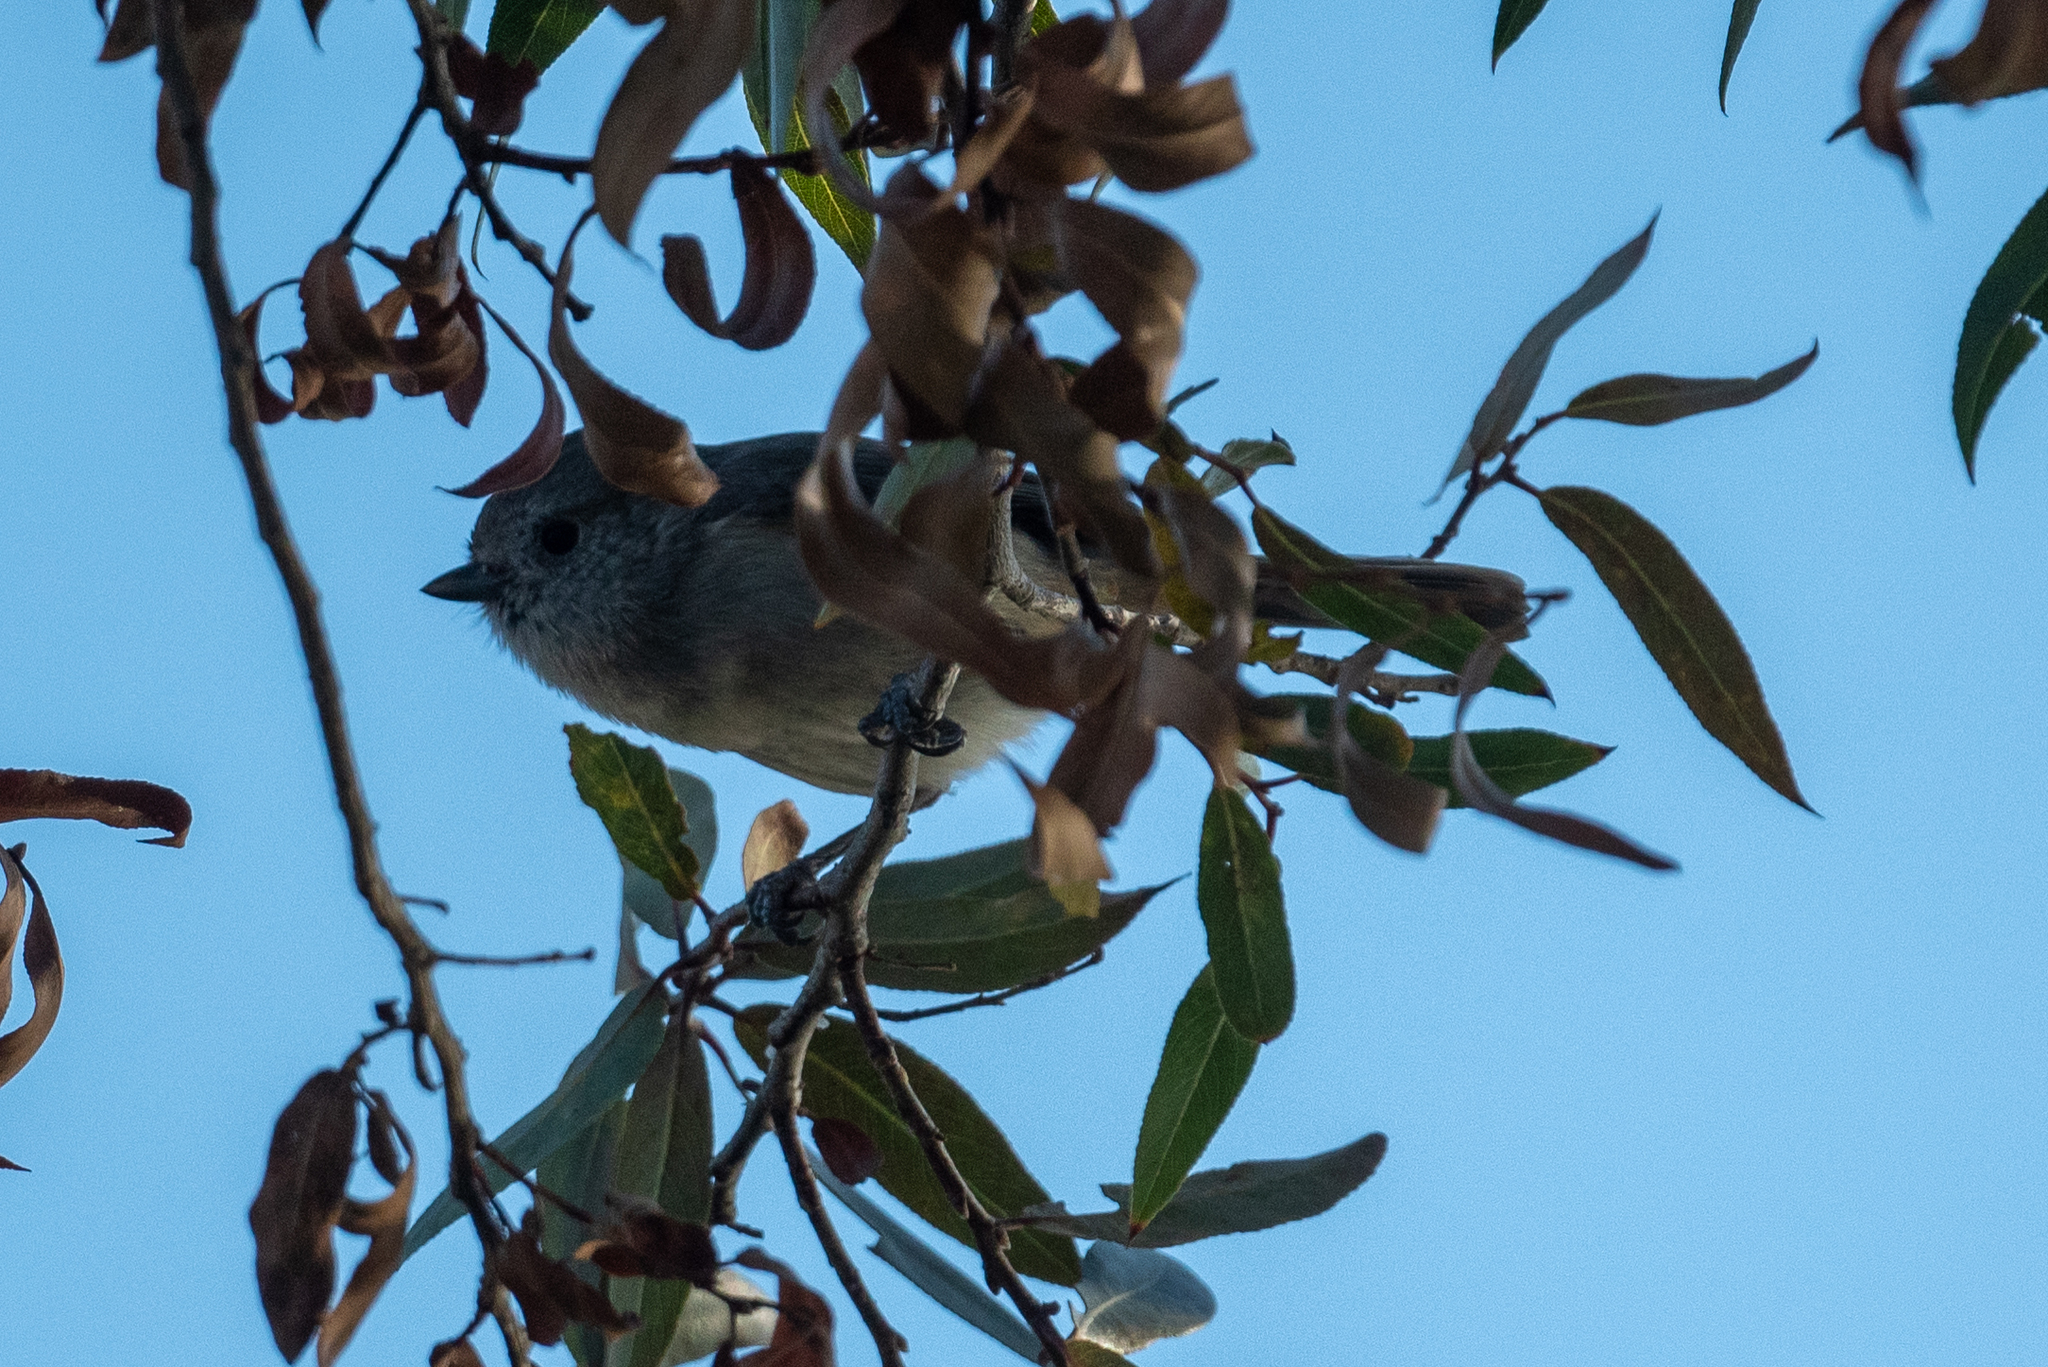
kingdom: Animalia
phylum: Chordata
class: Aves
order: Passeriformes
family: Paridae
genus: Baeolophus
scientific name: Baeolophus inornatus
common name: Oak titmouse
